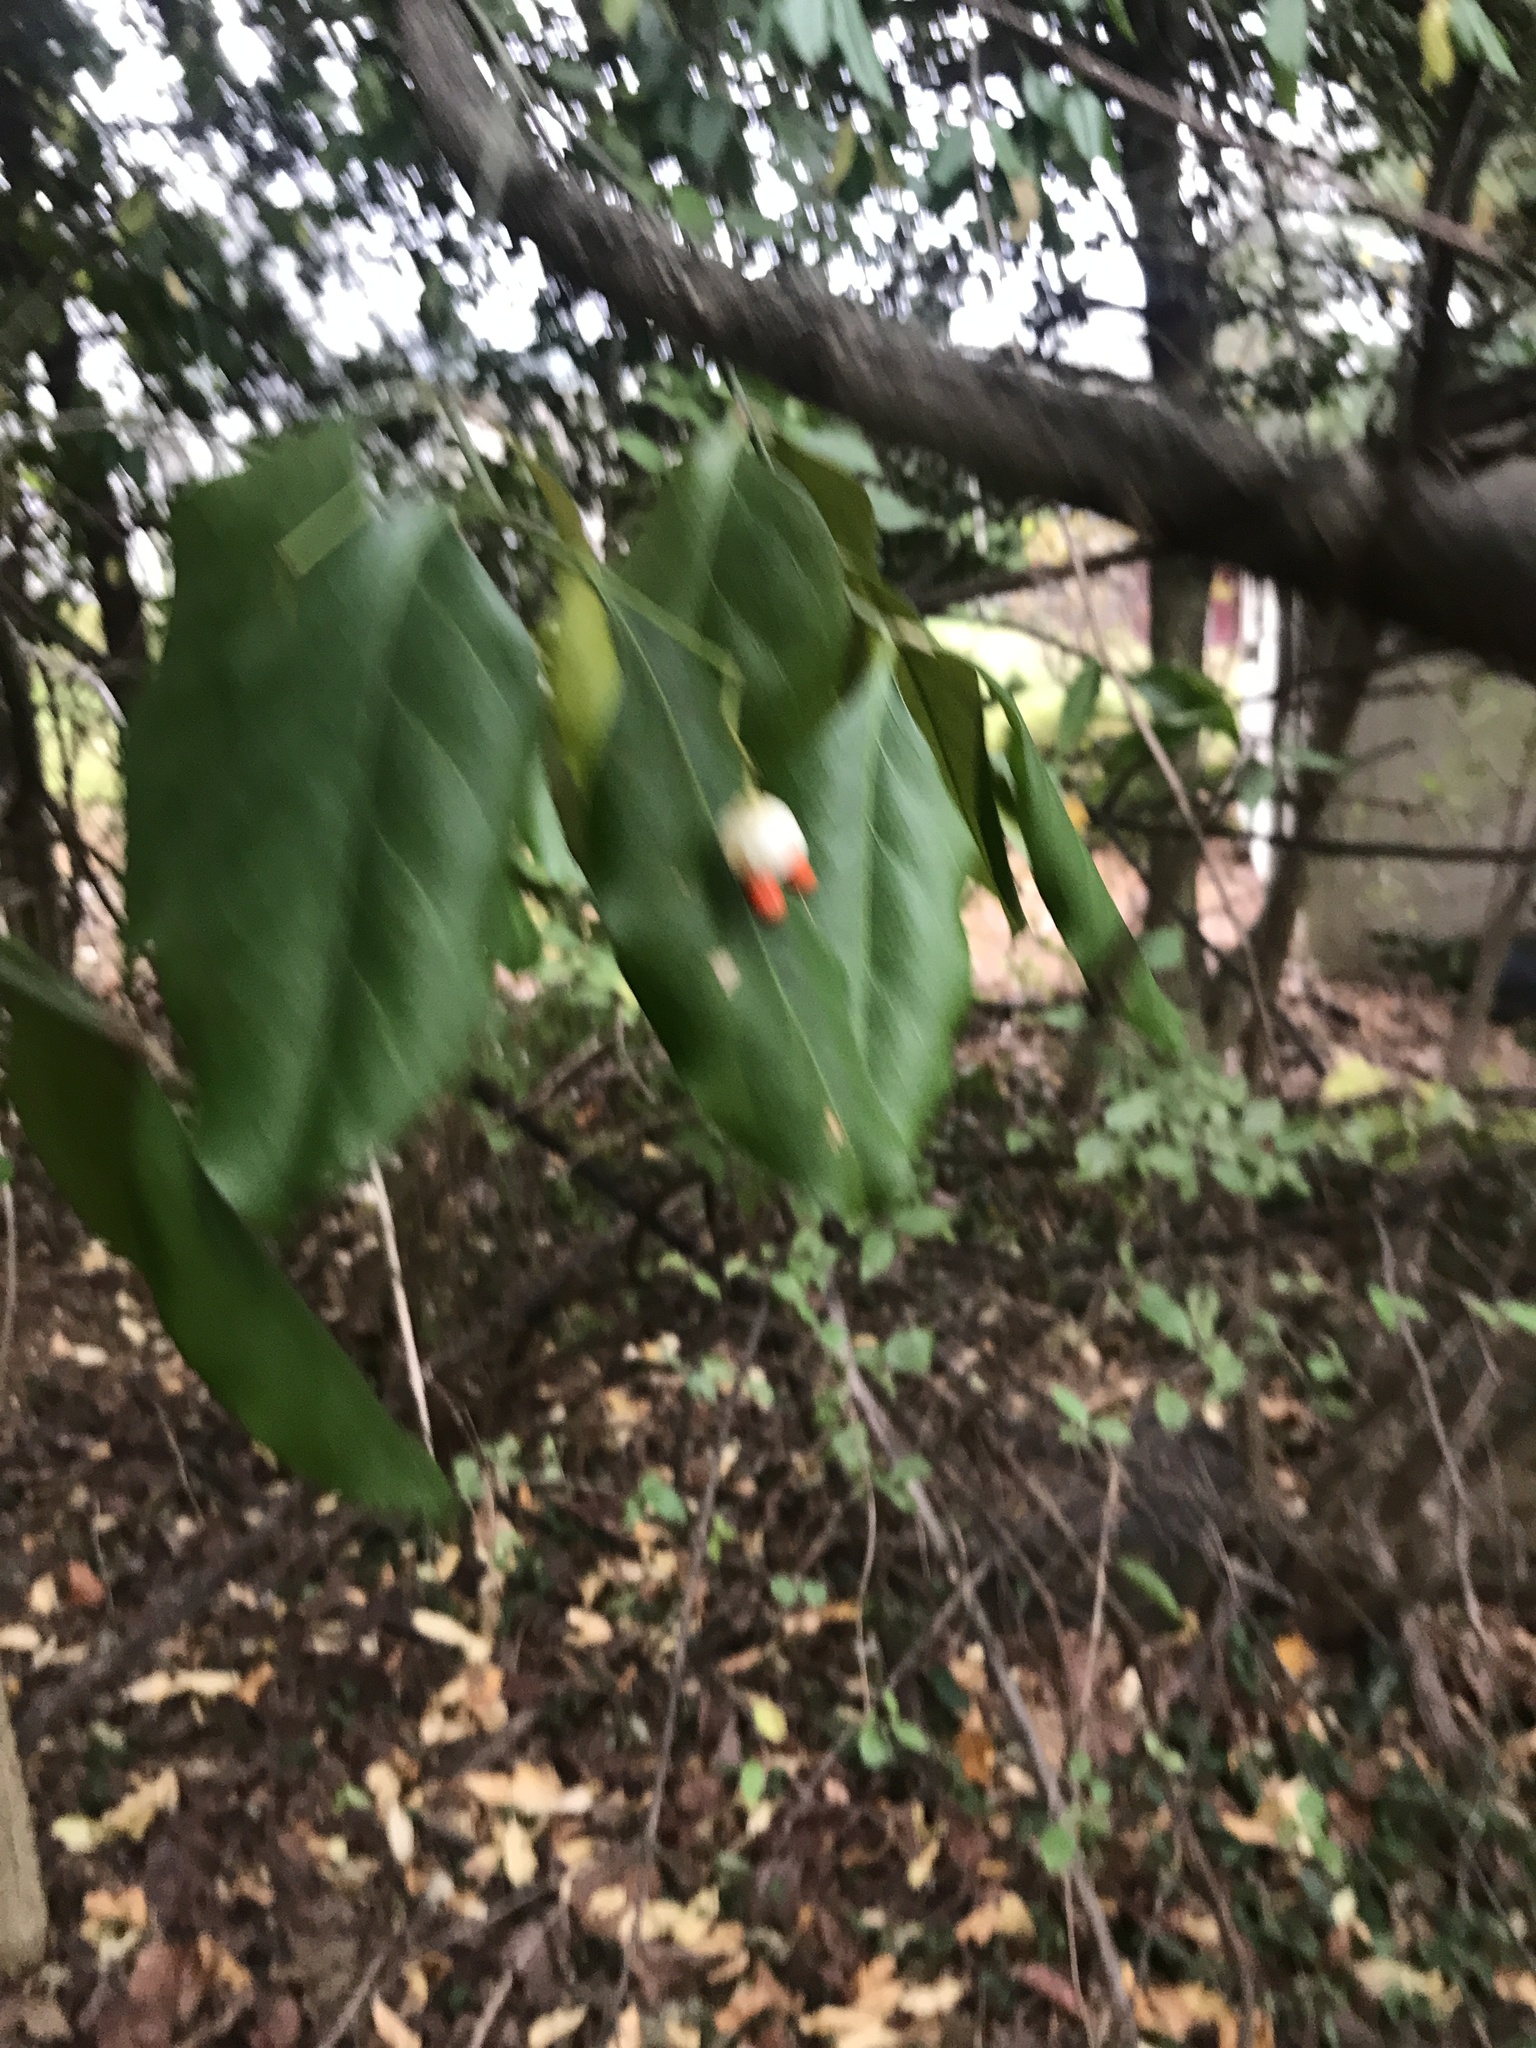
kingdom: Plantae
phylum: Tracheophyta
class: Magnoliopsida
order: Celastrales
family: Celastraceae
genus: Euonymus
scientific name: Euonymus fortunei
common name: Climbing euonymus
